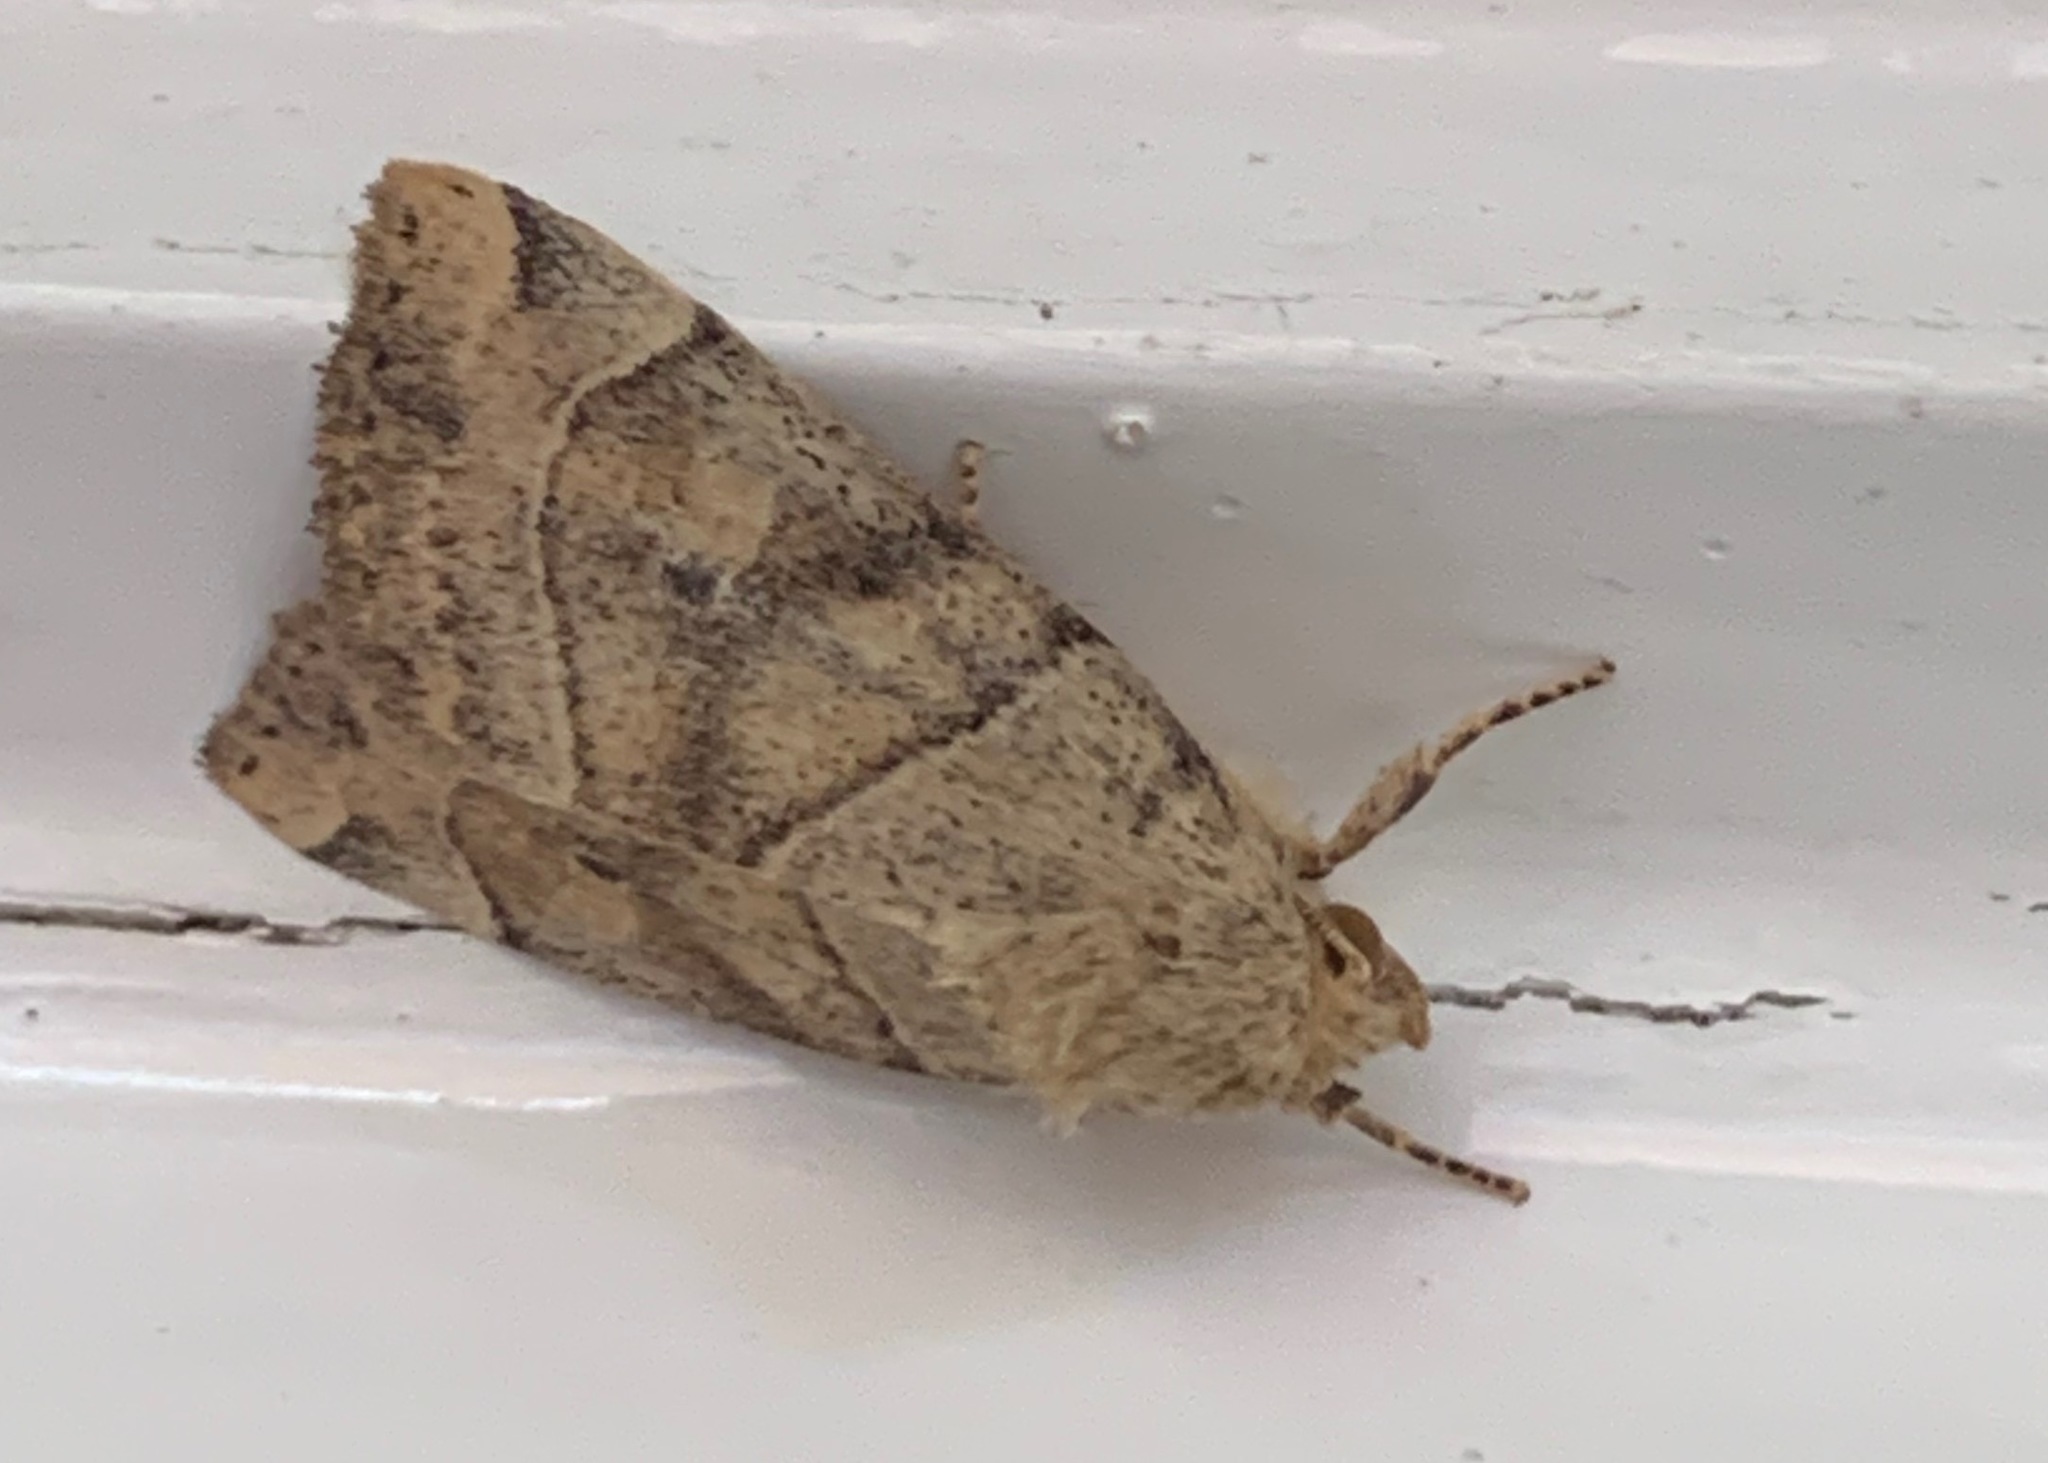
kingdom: Animalia
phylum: Arthropoda
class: Insecta
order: Lepidoptera
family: Noctuidae
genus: Cosmia
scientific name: Cosmia trapezina
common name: Dun-bar
